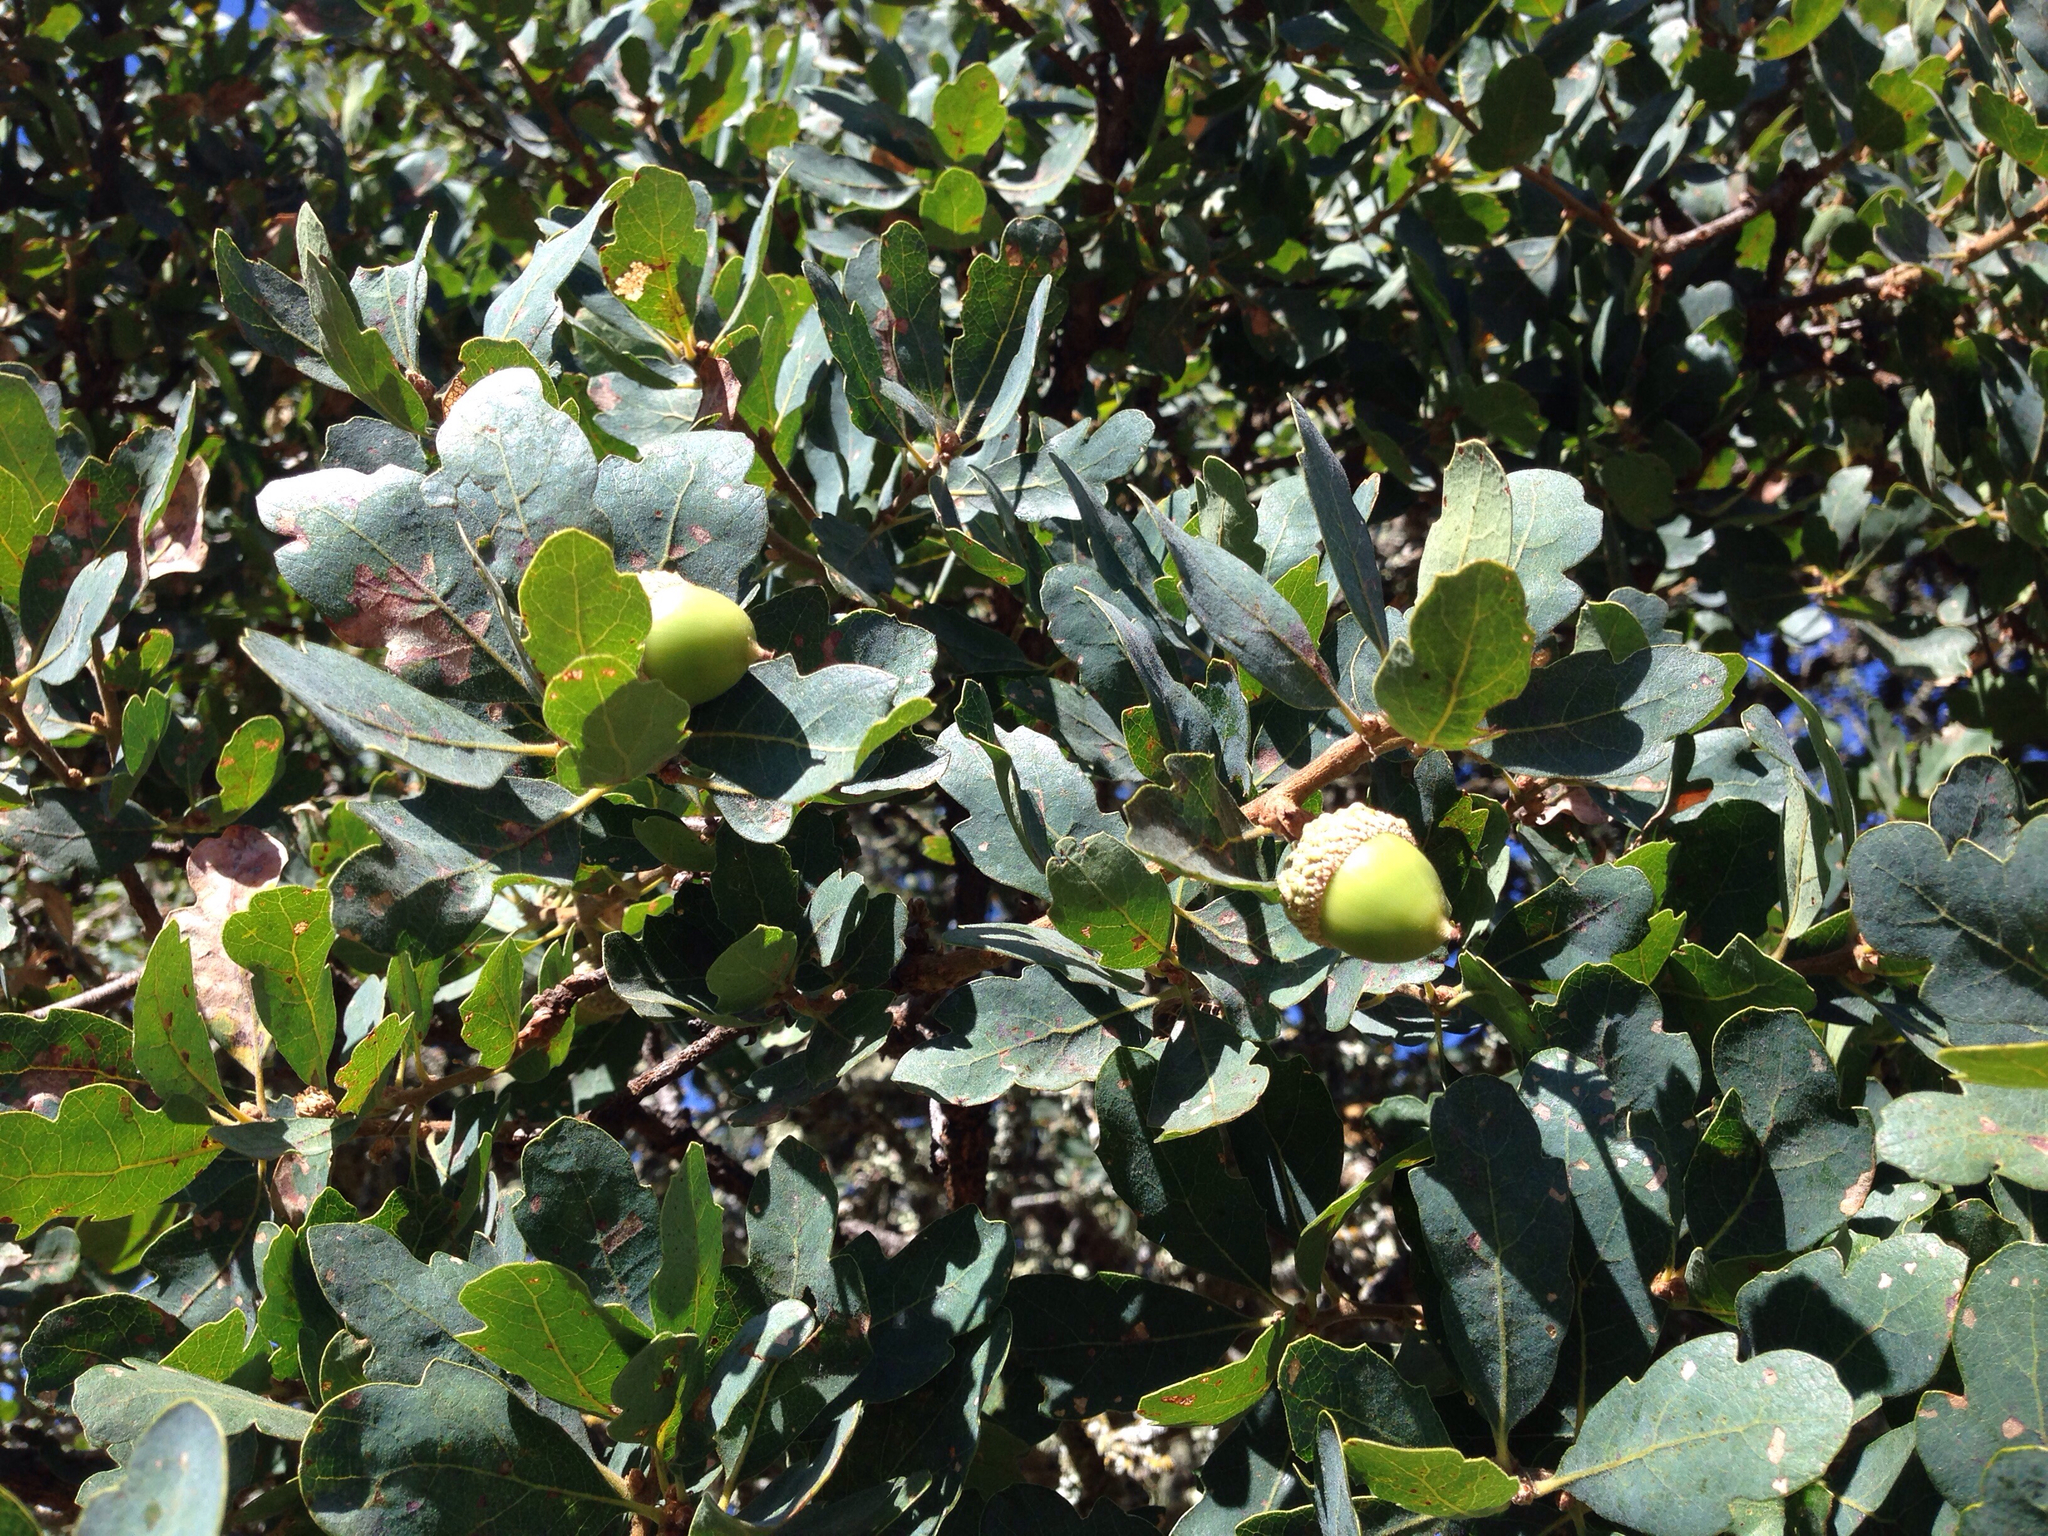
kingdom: Plantae
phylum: Tracheophyta
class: Magnoliopsida
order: Fagales
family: Fagaceae
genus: Quercus
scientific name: Quercus douglasii
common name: Blue oak
